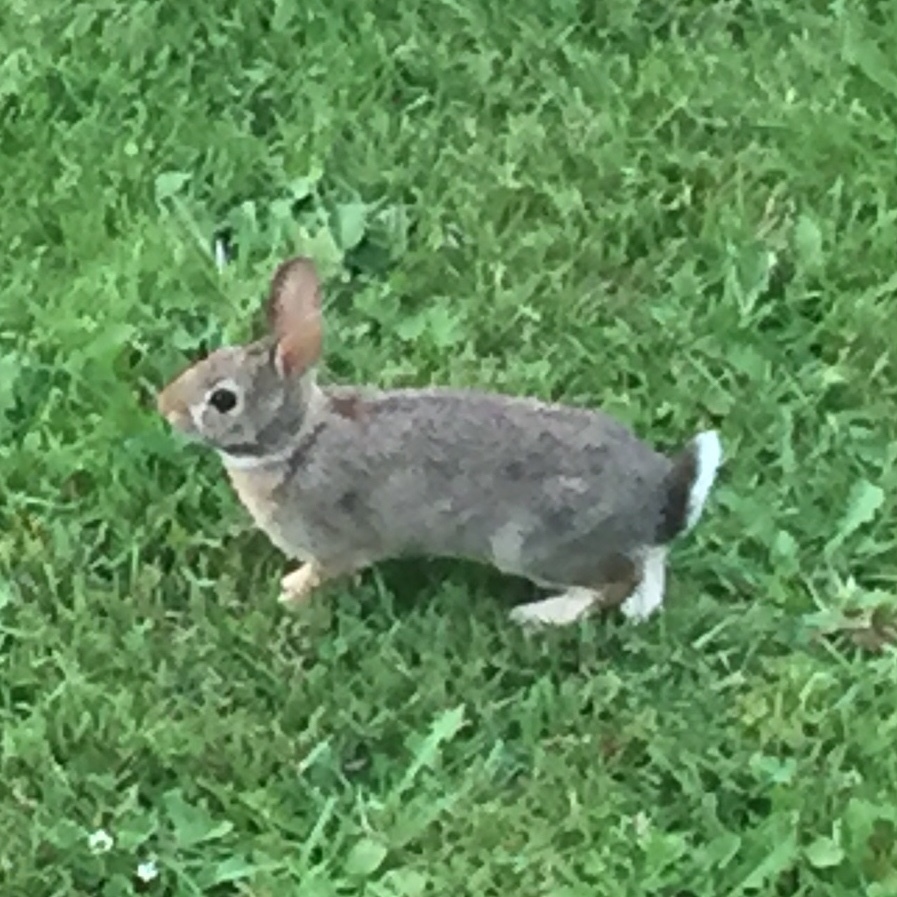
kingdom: Animalia
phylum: Chordata
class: Mammalia
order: Lagomorpha
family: Leporidae
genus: Sylvilagus
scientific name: Sylvilagus floridanus
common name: Eastern cottontail
